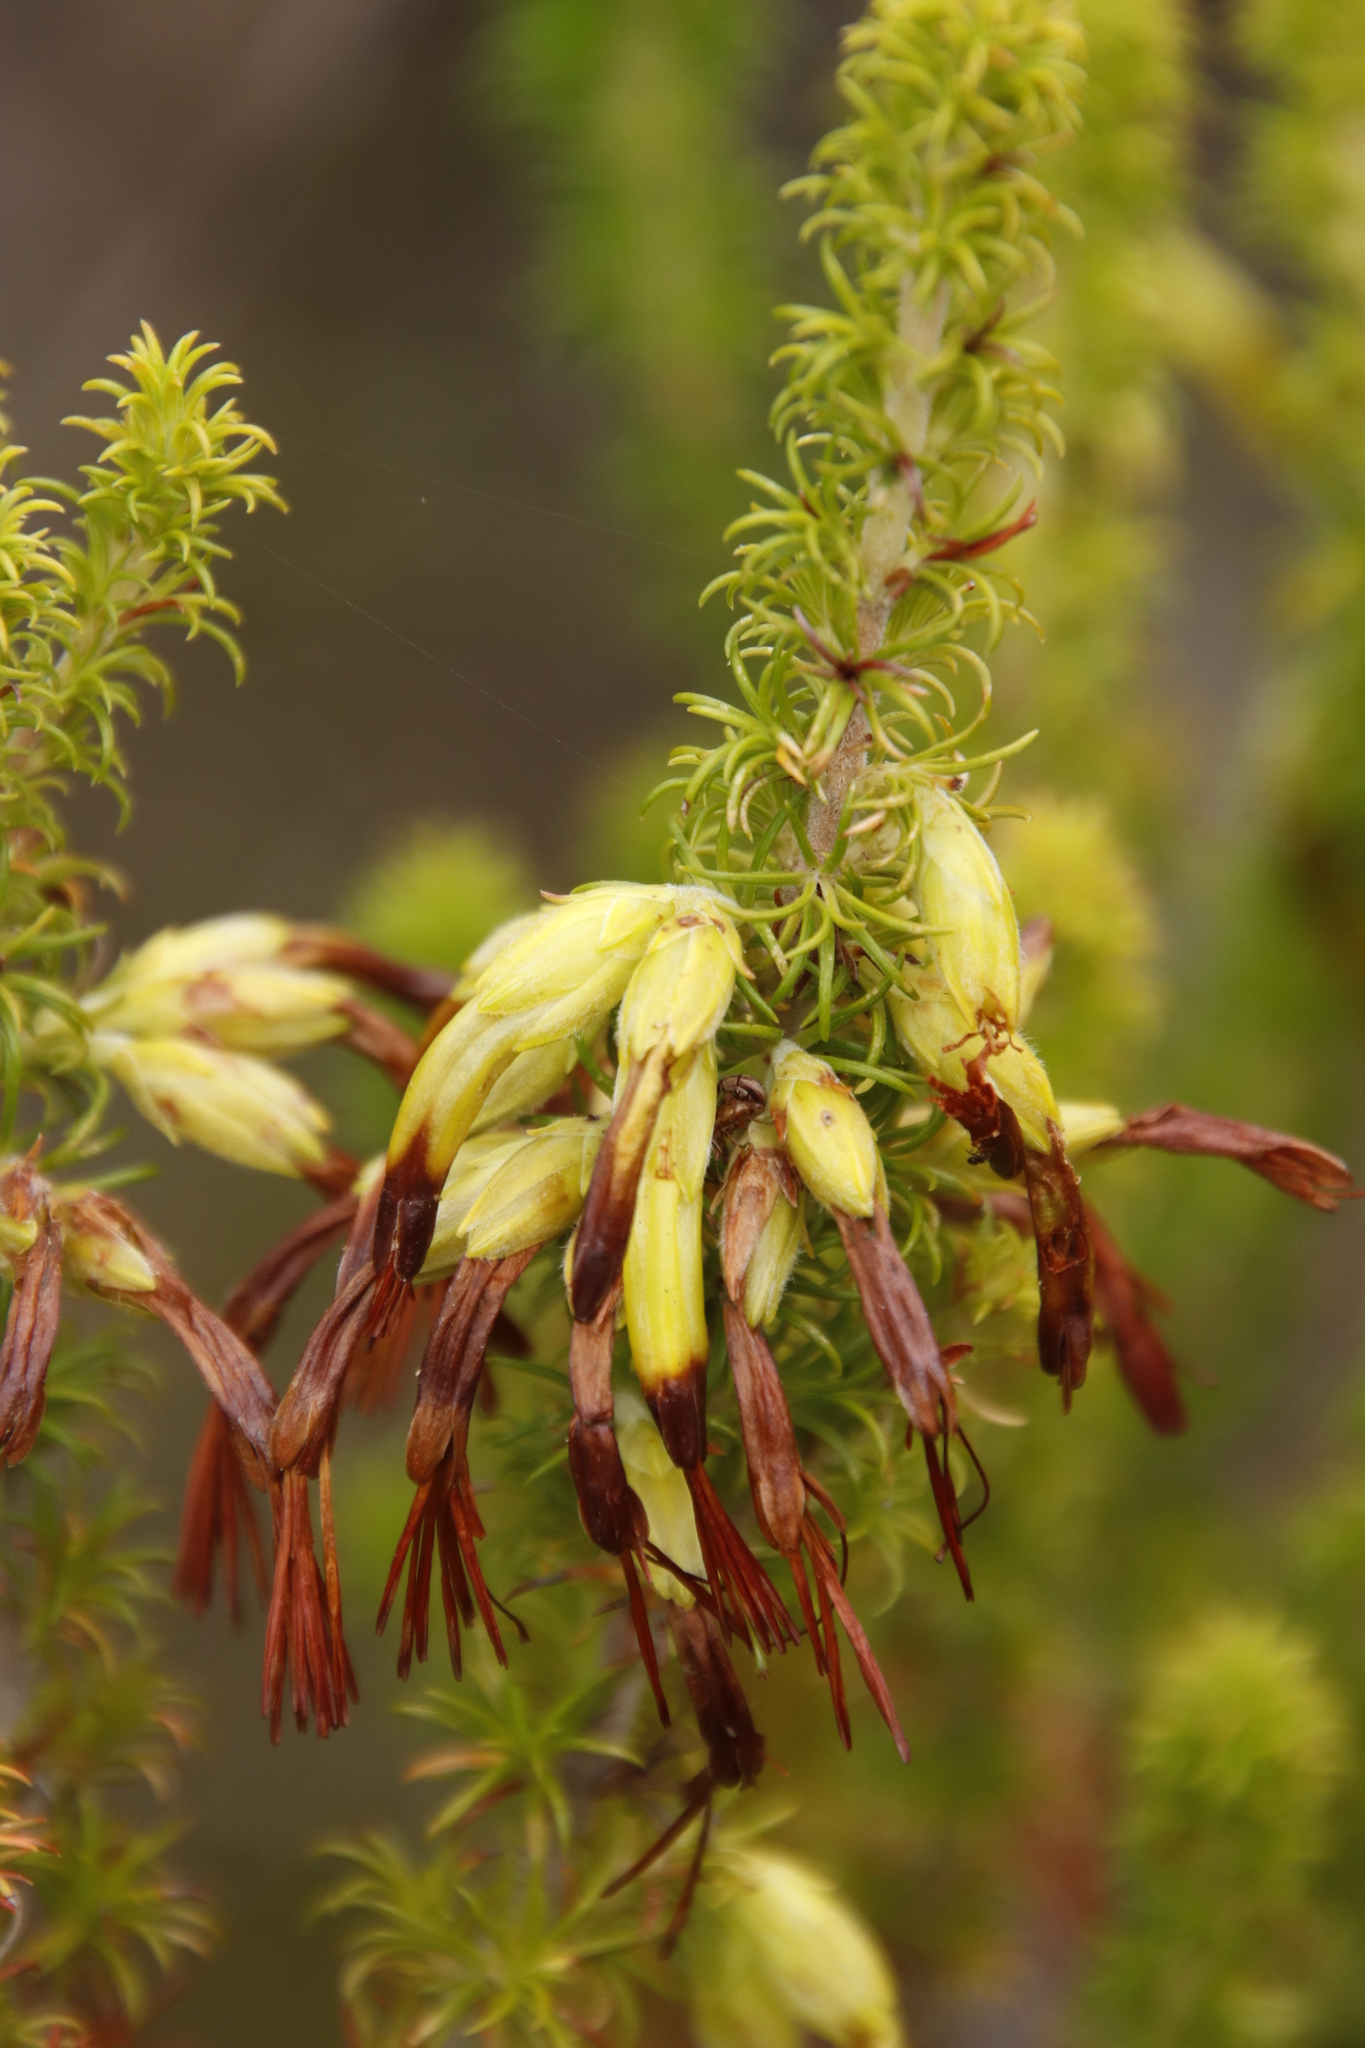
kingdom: Plantae
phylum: Tracheophyta
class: Magnoliopsida
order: Ericales
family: Ericaceae
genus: Erica
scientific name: Erica coccinea
